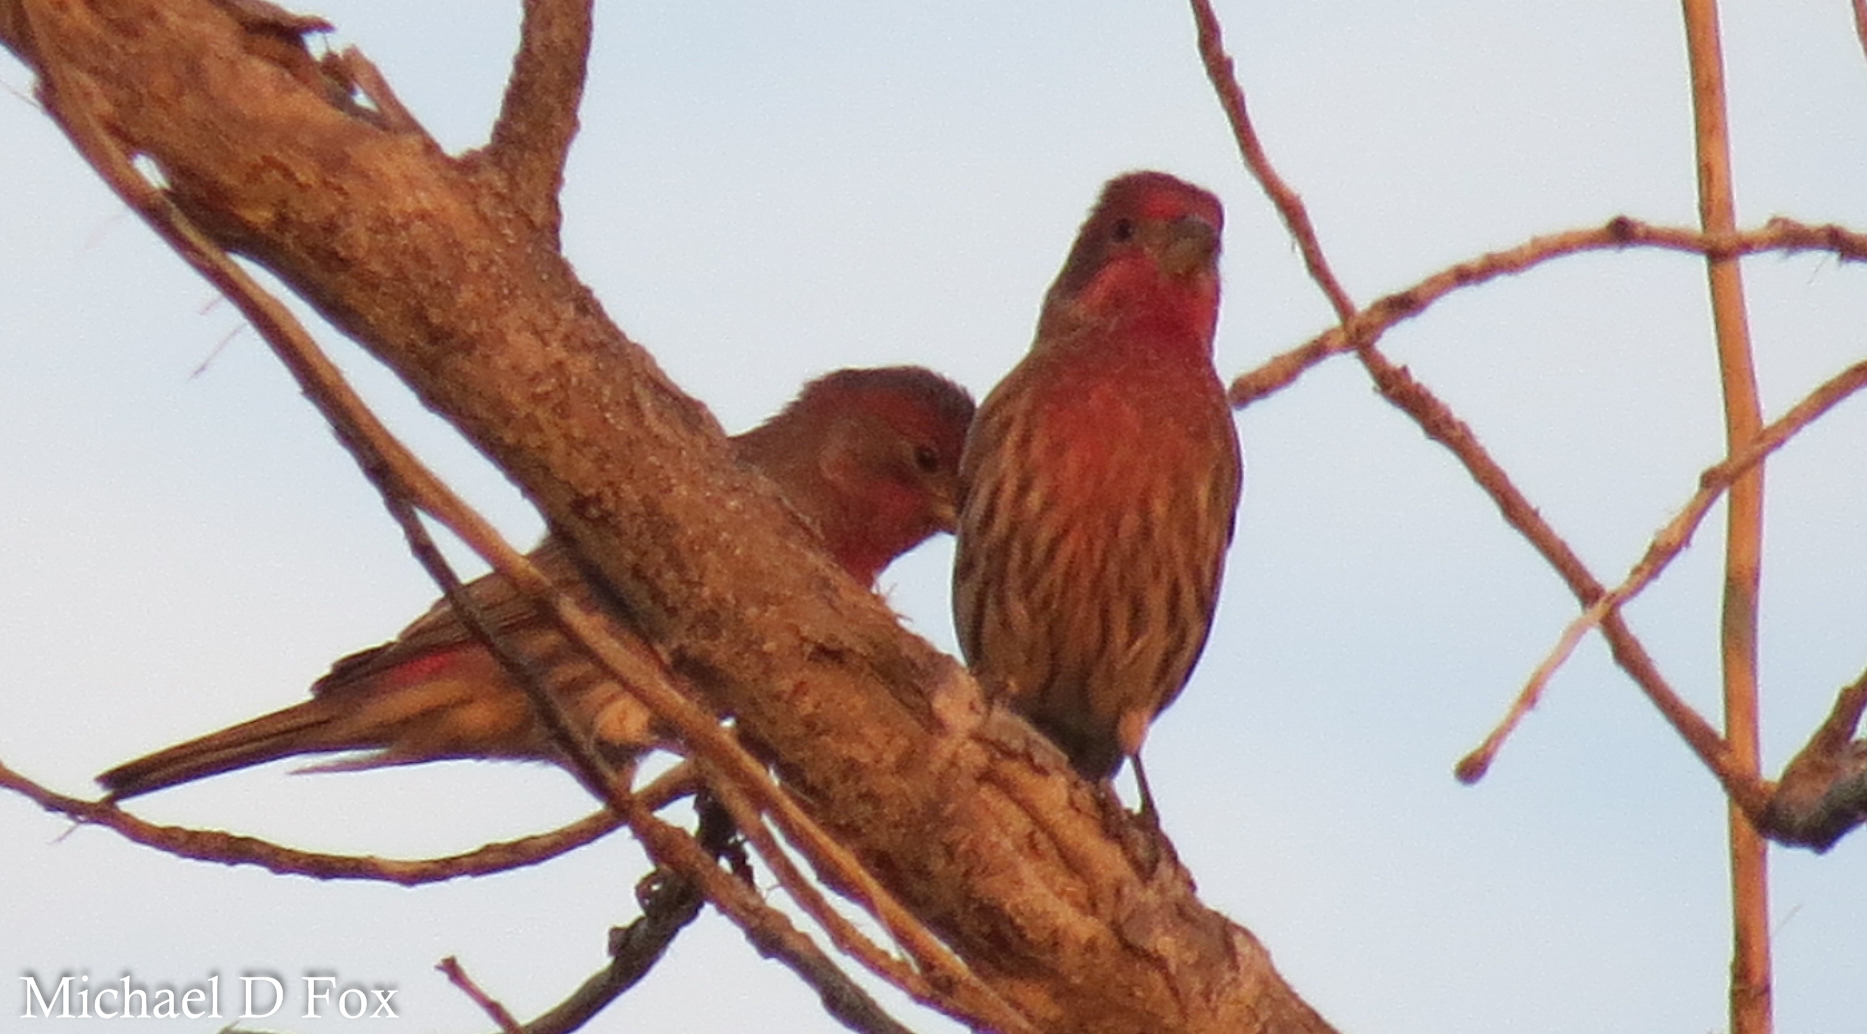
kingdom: Animalia
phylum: Chordata
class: Aves
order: Passeriformes
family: Fringillidae
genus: Haemorhous
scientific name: Haemorhous mexicanus
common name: House finch
